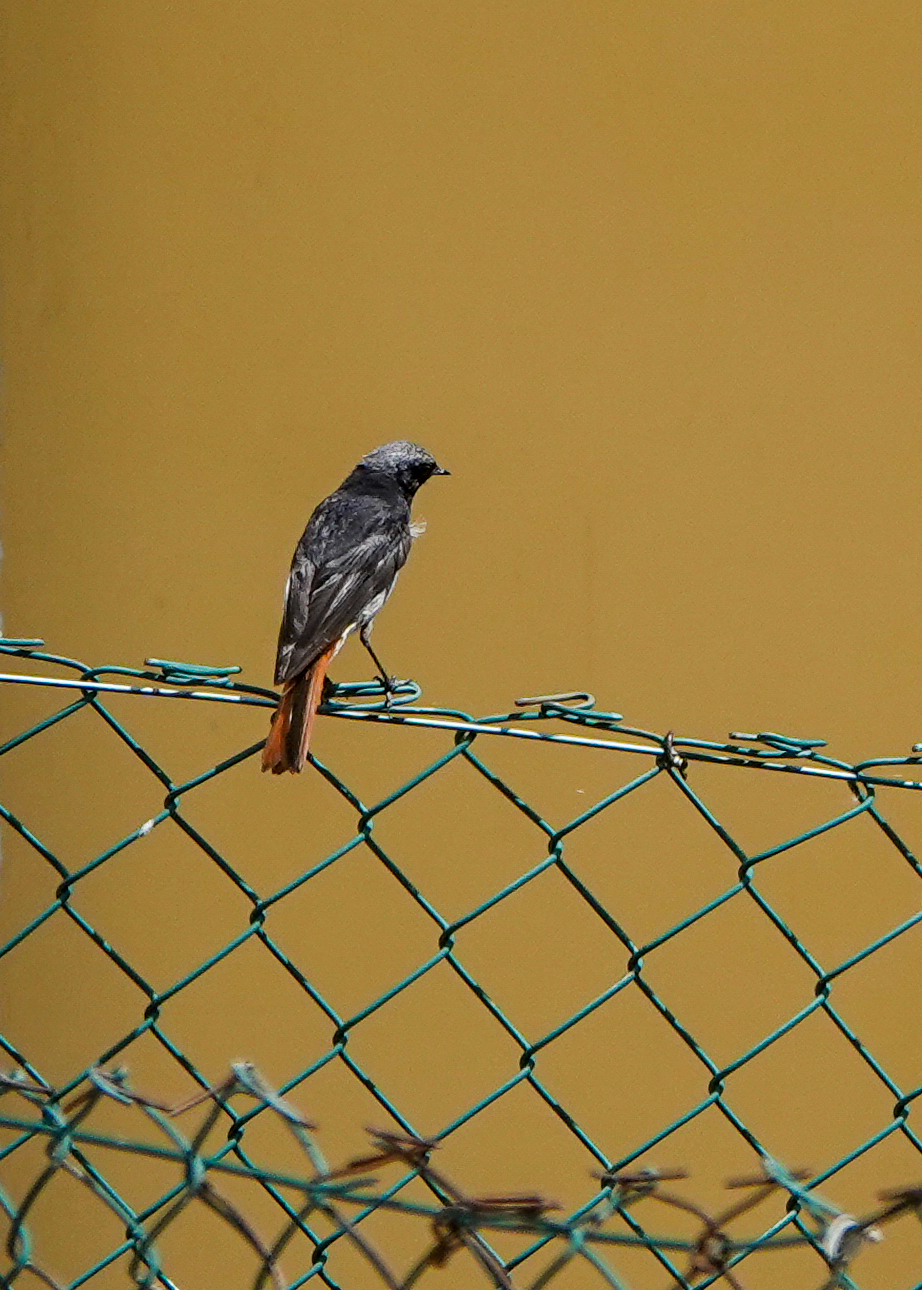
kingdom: Animalia
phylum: Chordata
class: Aves
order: Passeriformes
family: Muscicapidae
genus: Phoenicurus
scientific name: Phoenicurus ochruros
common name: Black redstart
